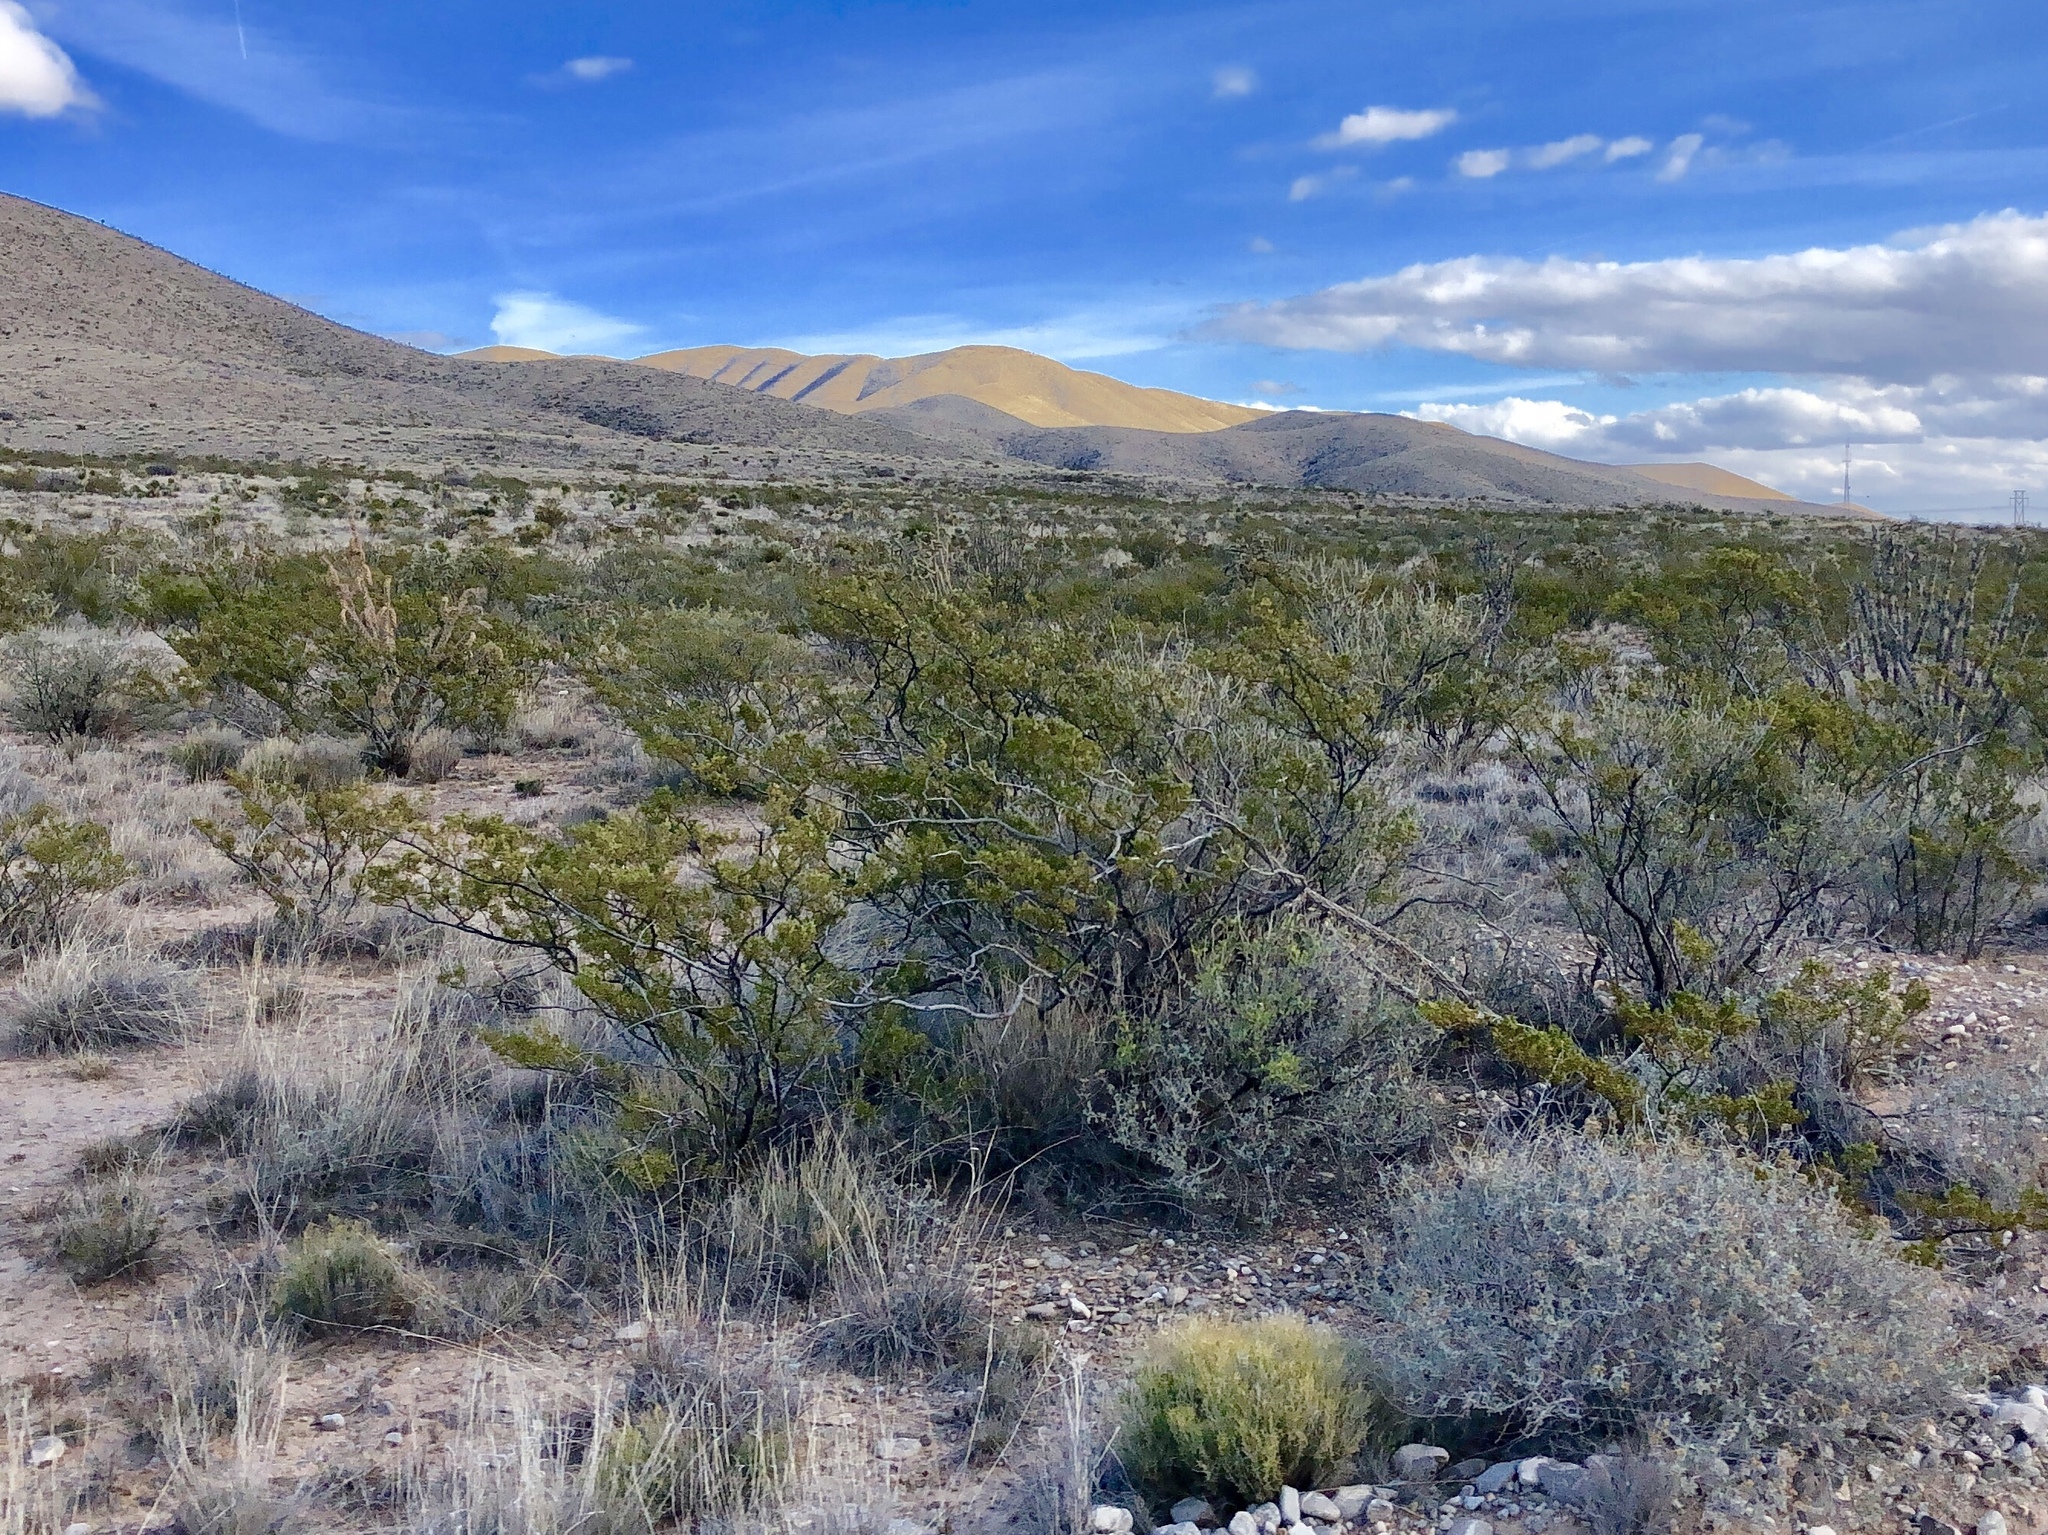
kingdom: Plantae
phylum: Tracheophyta
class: Magnoliopsida
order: Zygophyllales
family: Zygophyllaceae
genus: Larrea
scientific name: Larrea tridentata
